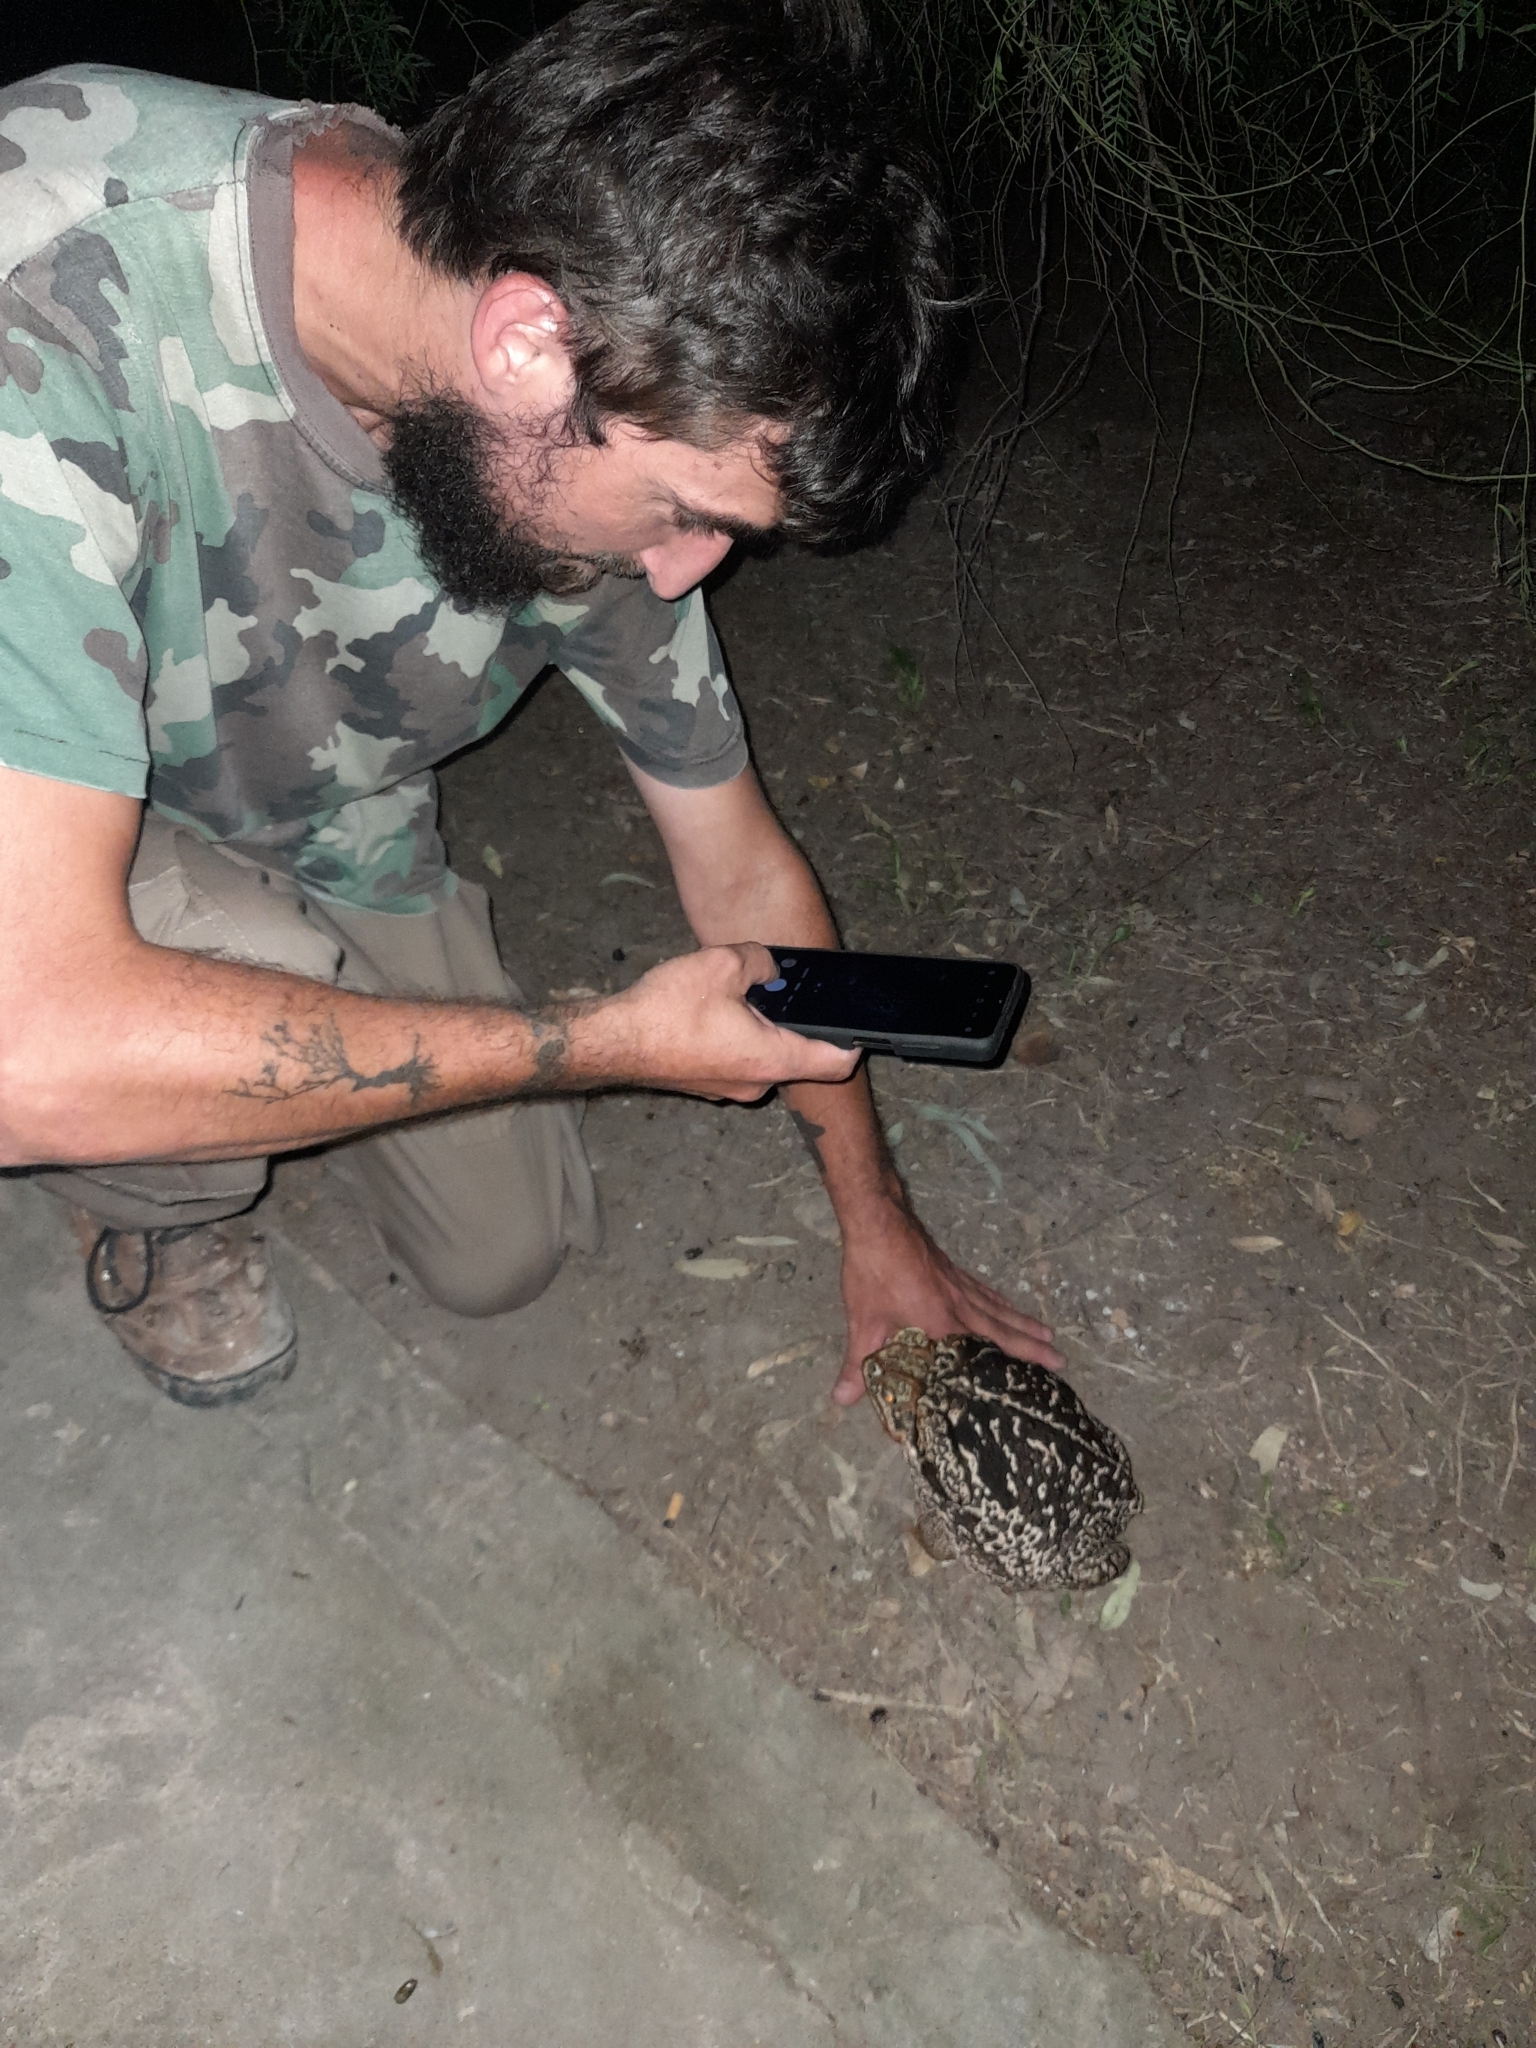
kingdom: Animalia
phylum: Chordata
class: Amphibia
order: Anura
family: Bufonidae
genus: Rhinella
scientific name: Rhinella diptycha
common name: Cope's toad
